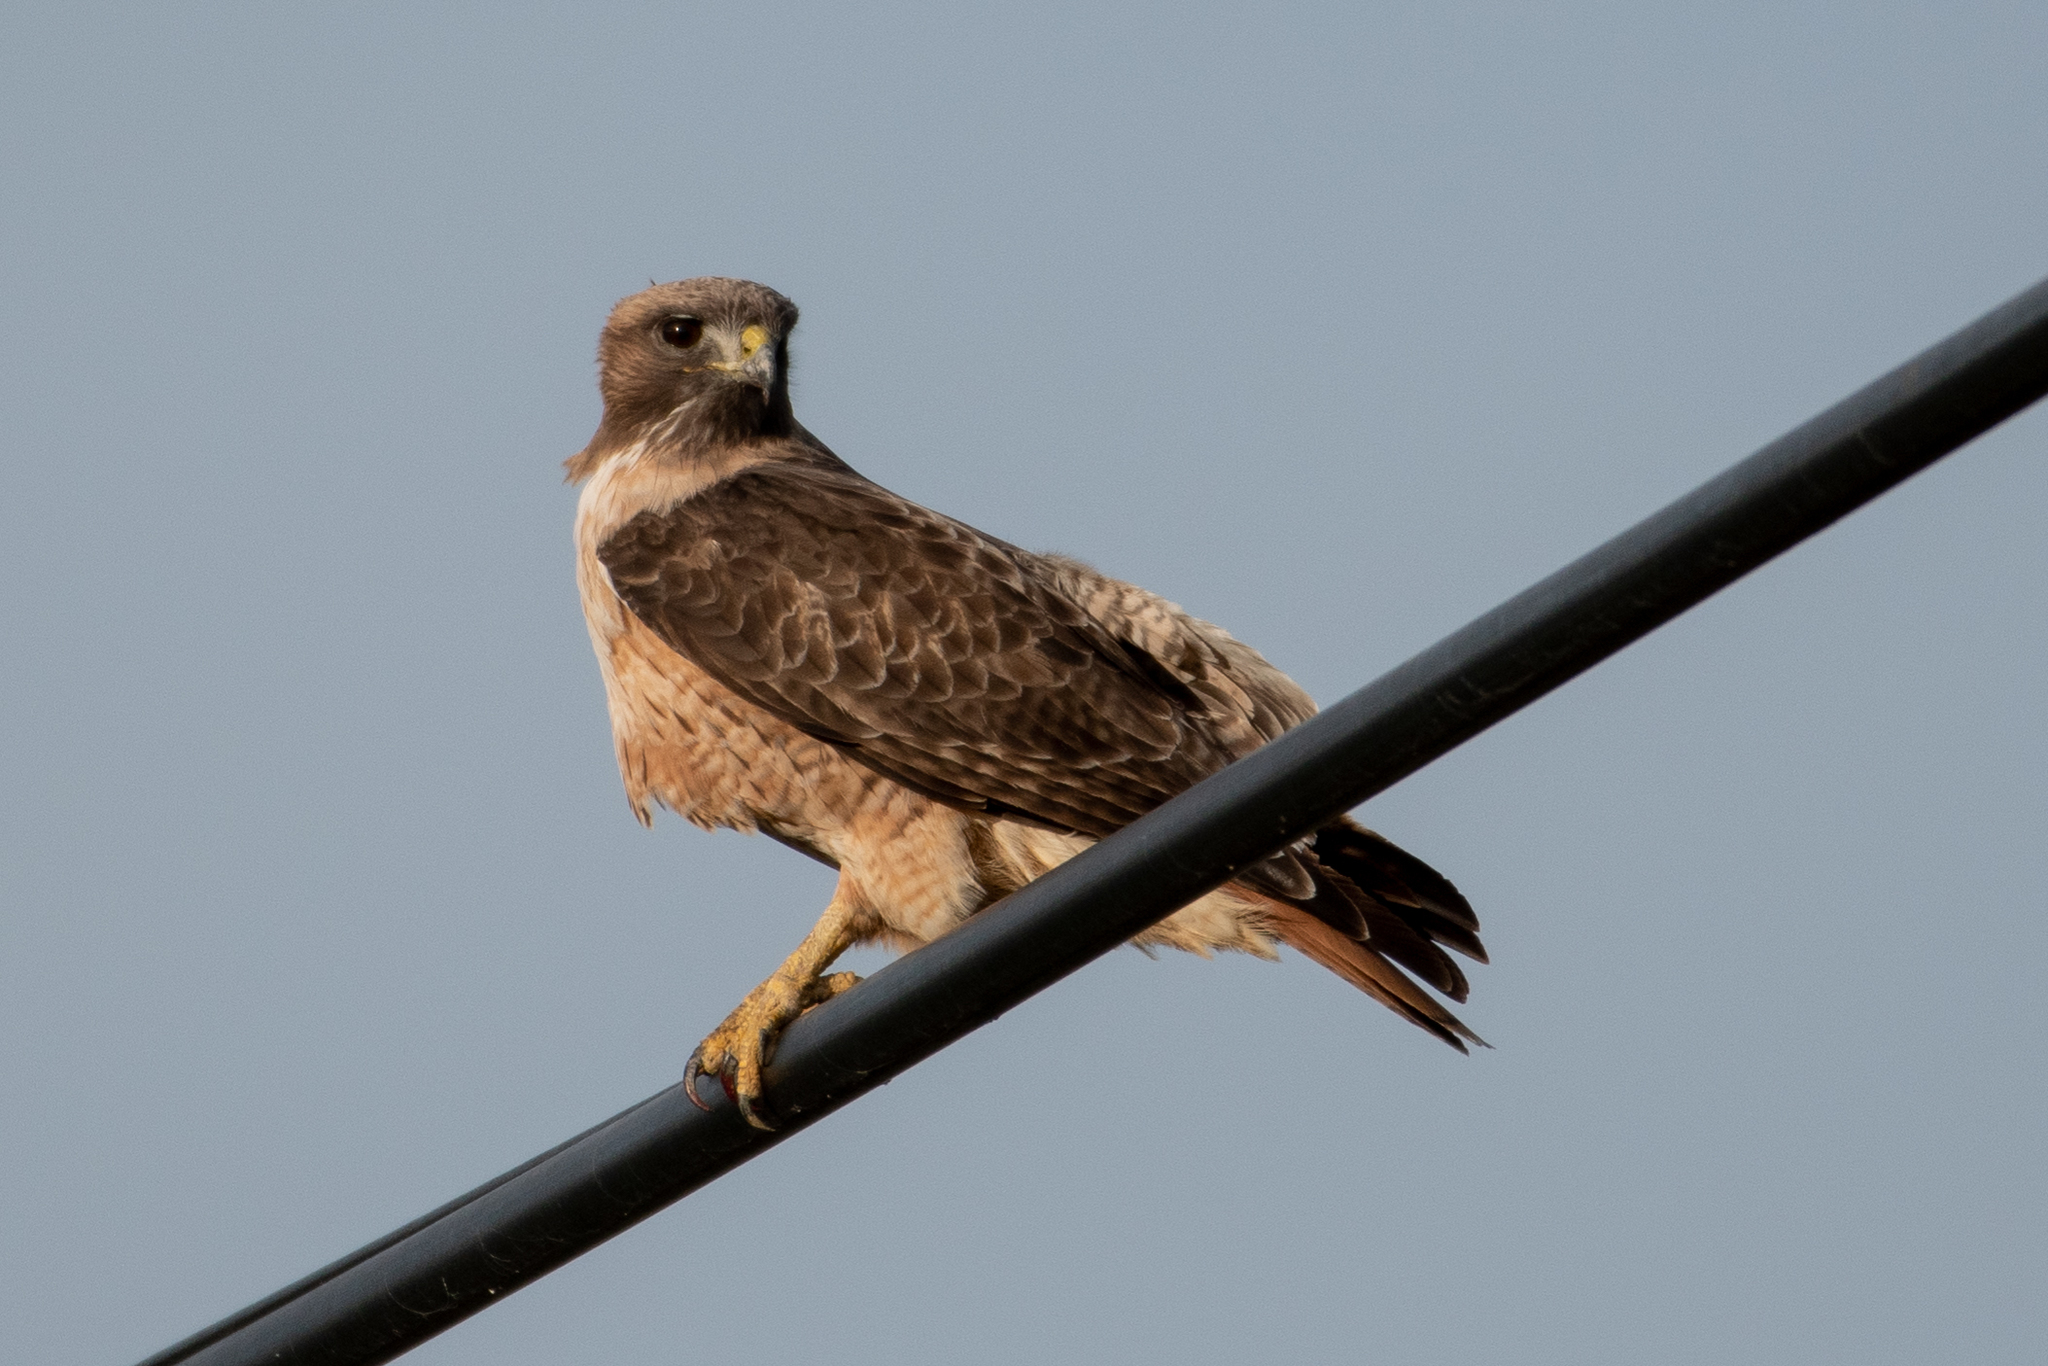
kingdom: Animalia
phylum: Chordata
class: Aves
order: Accipitriformes
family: Accipitridae
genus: Buteo
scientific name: Buteo jamaicensis
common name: Red-tailed hawk
